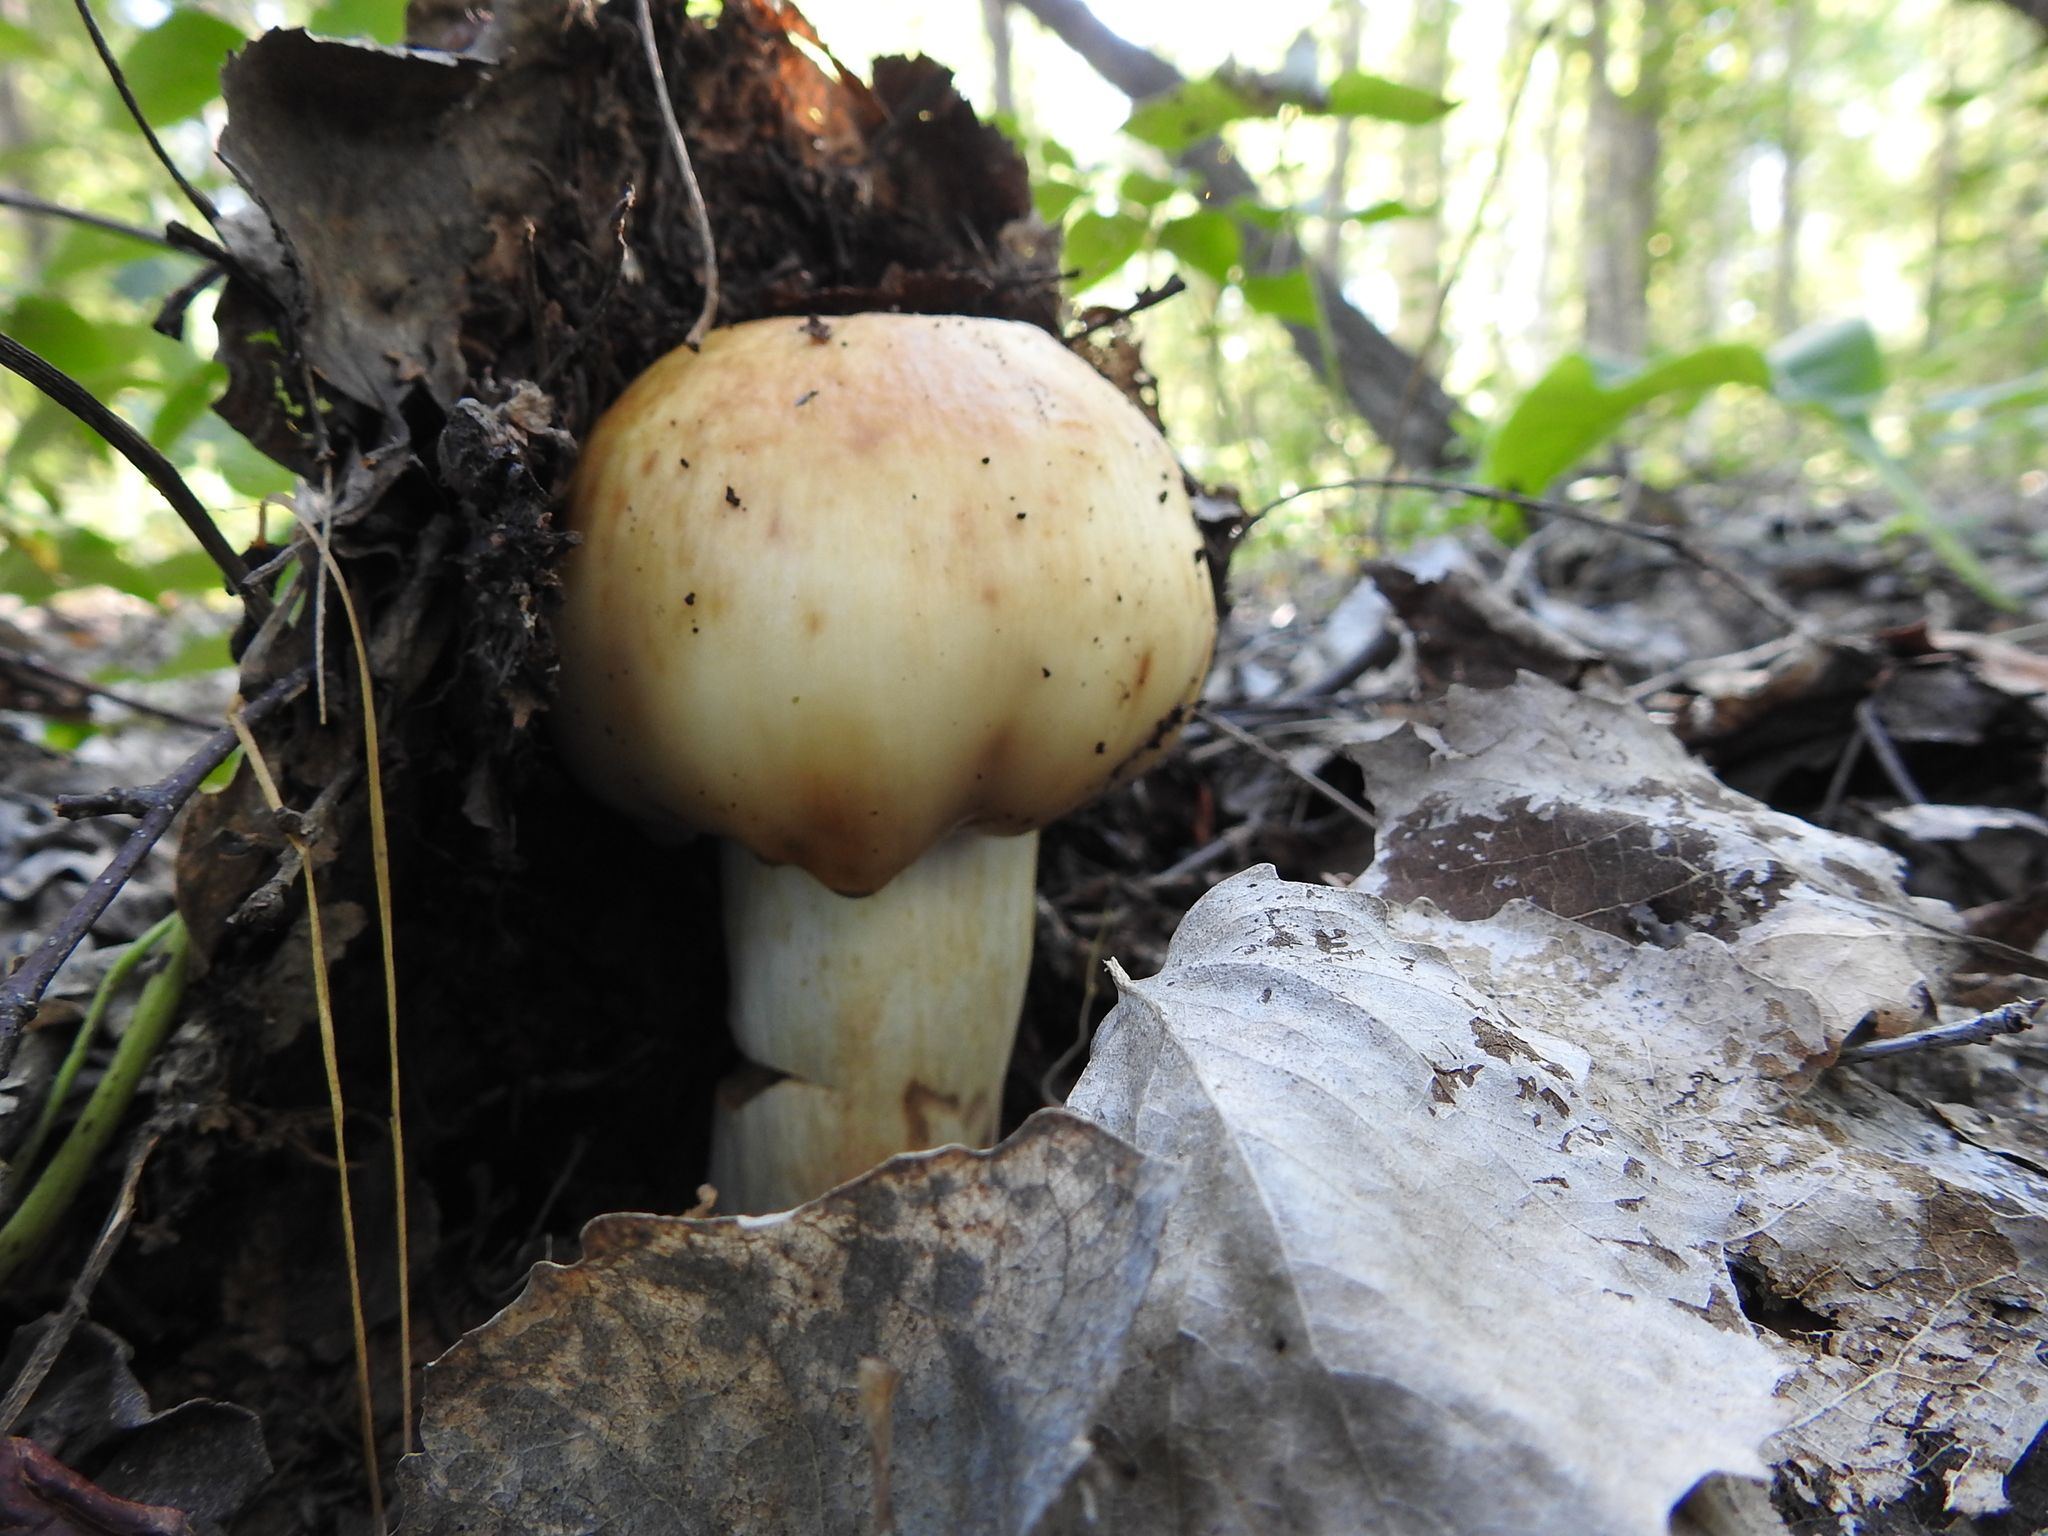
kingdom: Fungi
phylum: Basidiomycota
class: Agaricomycetes
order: Russulales
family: Russulaceae
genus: Russula
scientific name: Russula foetens
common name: Foetid russula
